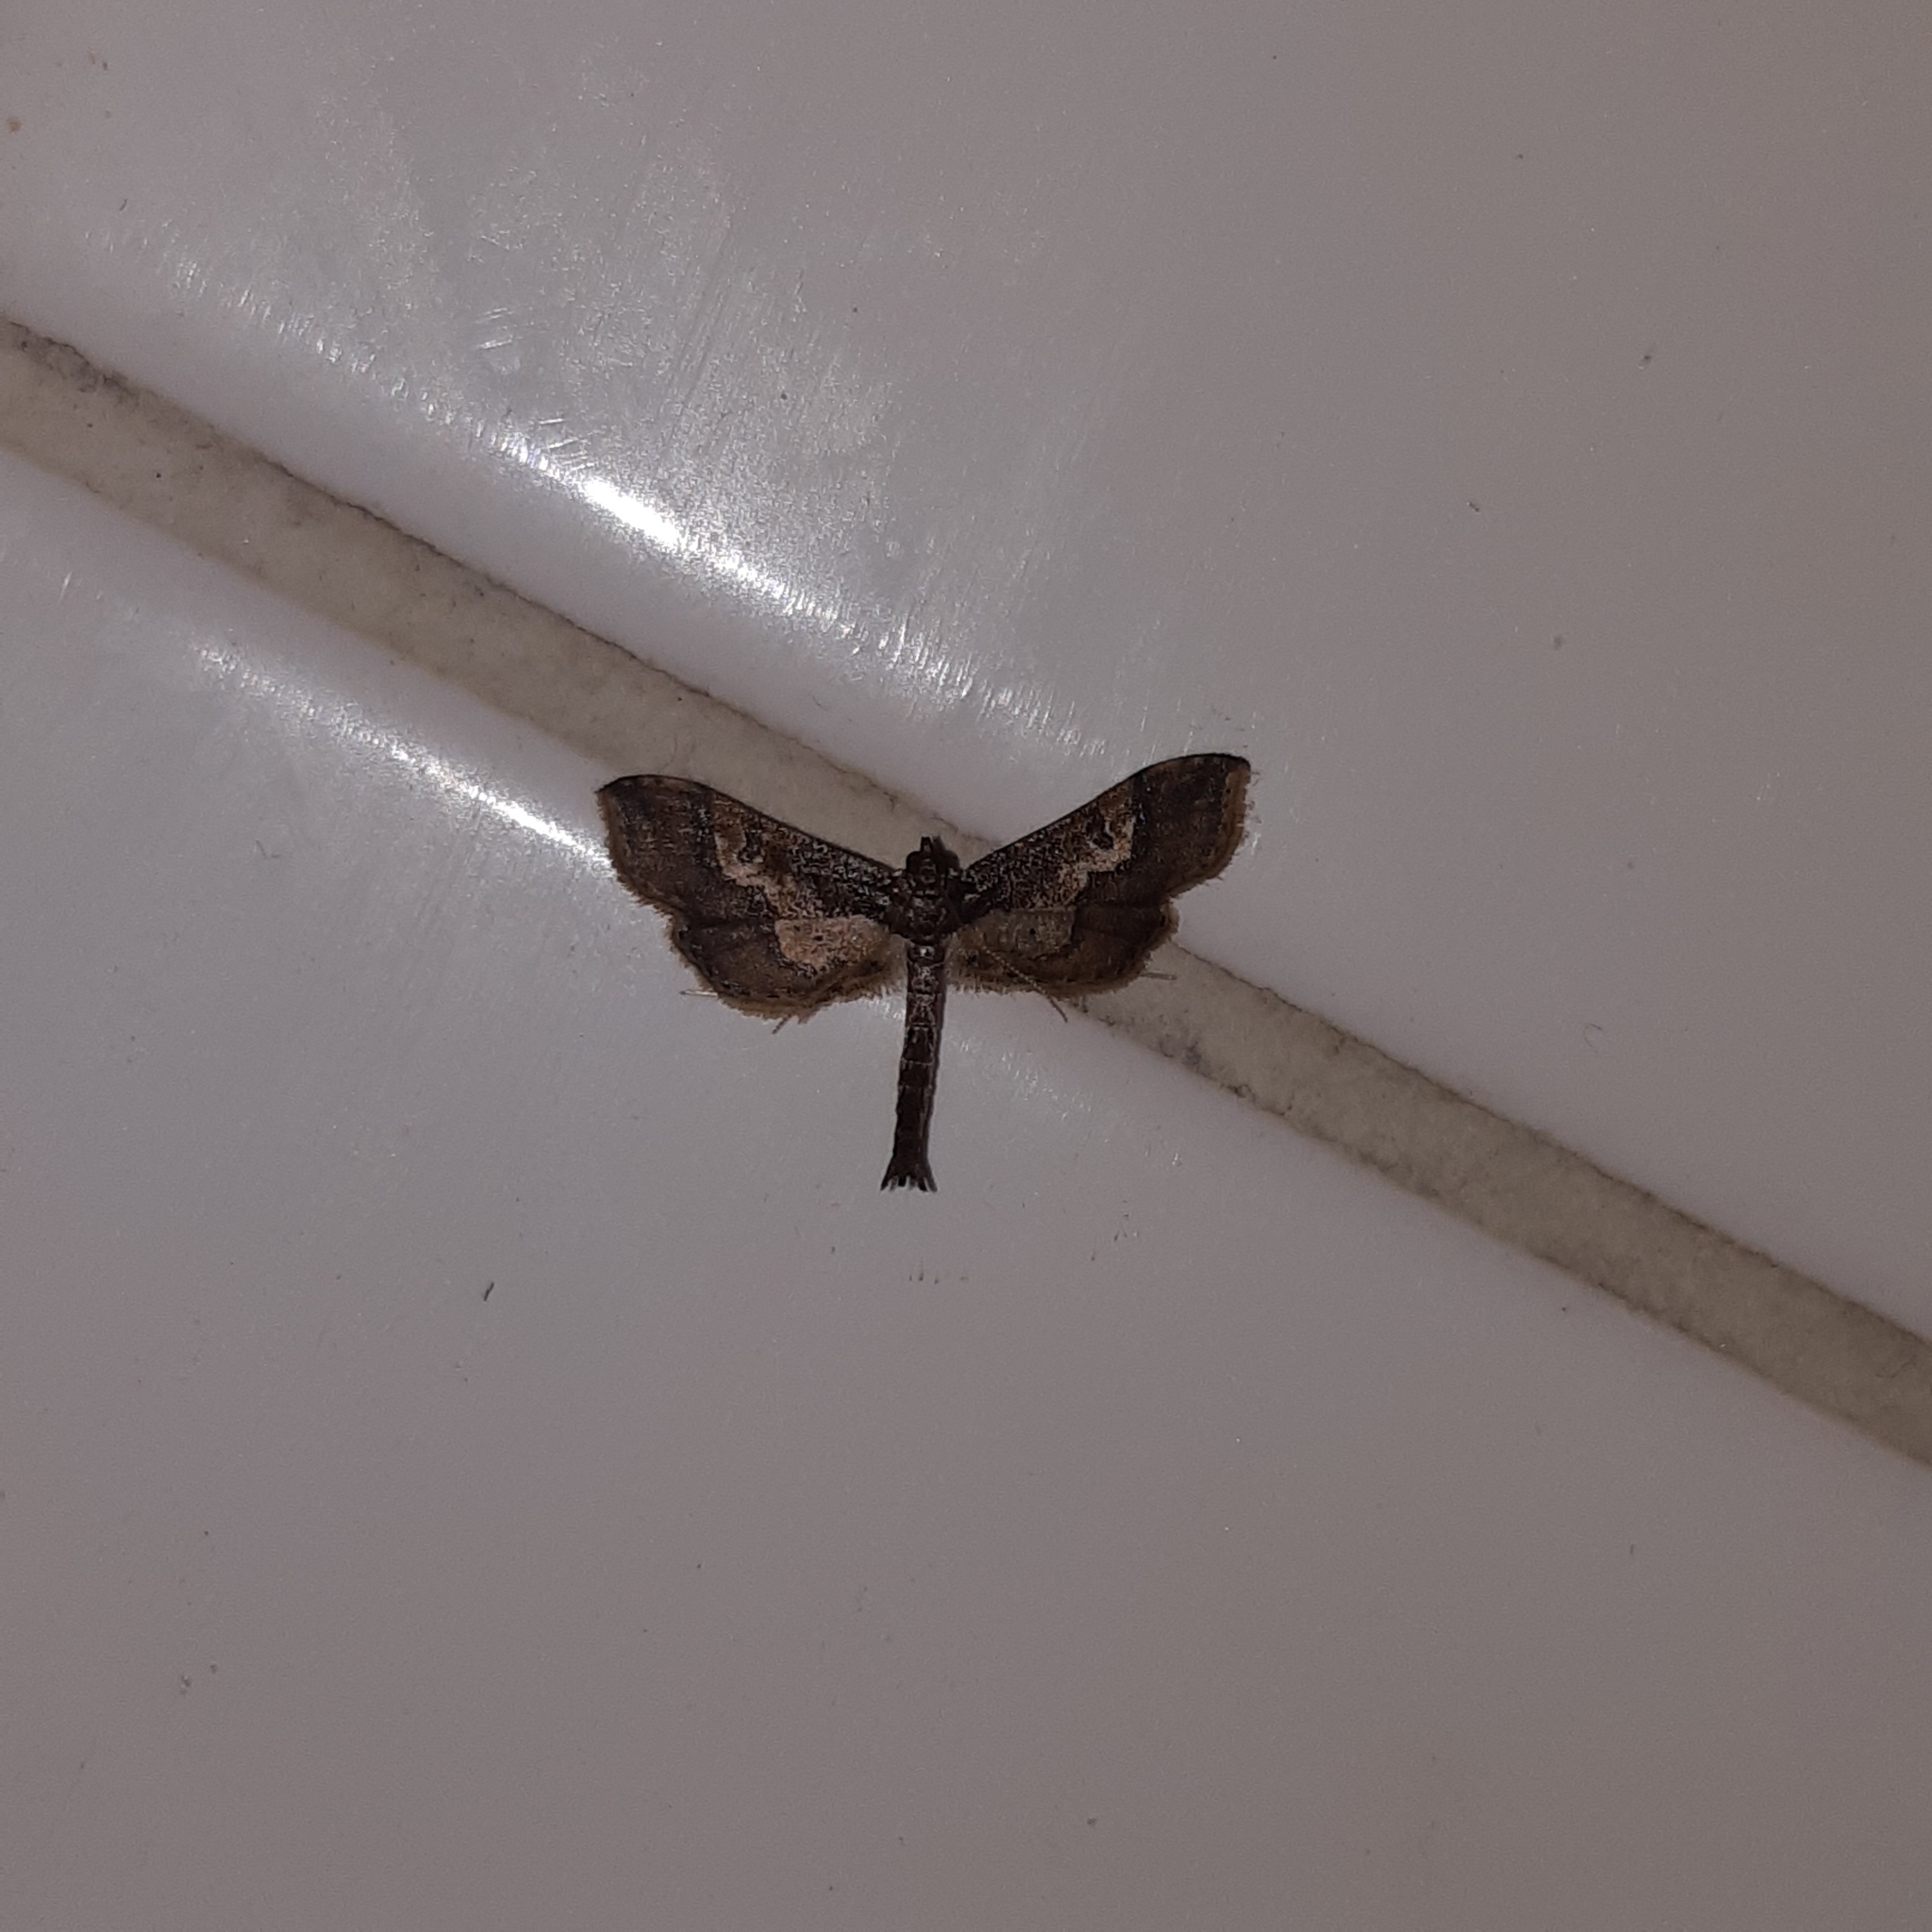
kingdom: Animalia
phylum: Arthropoda
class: Insecta
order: Lepidoptera
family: Crambidae
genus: Hydriris
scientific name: Hydriris ornatalis
